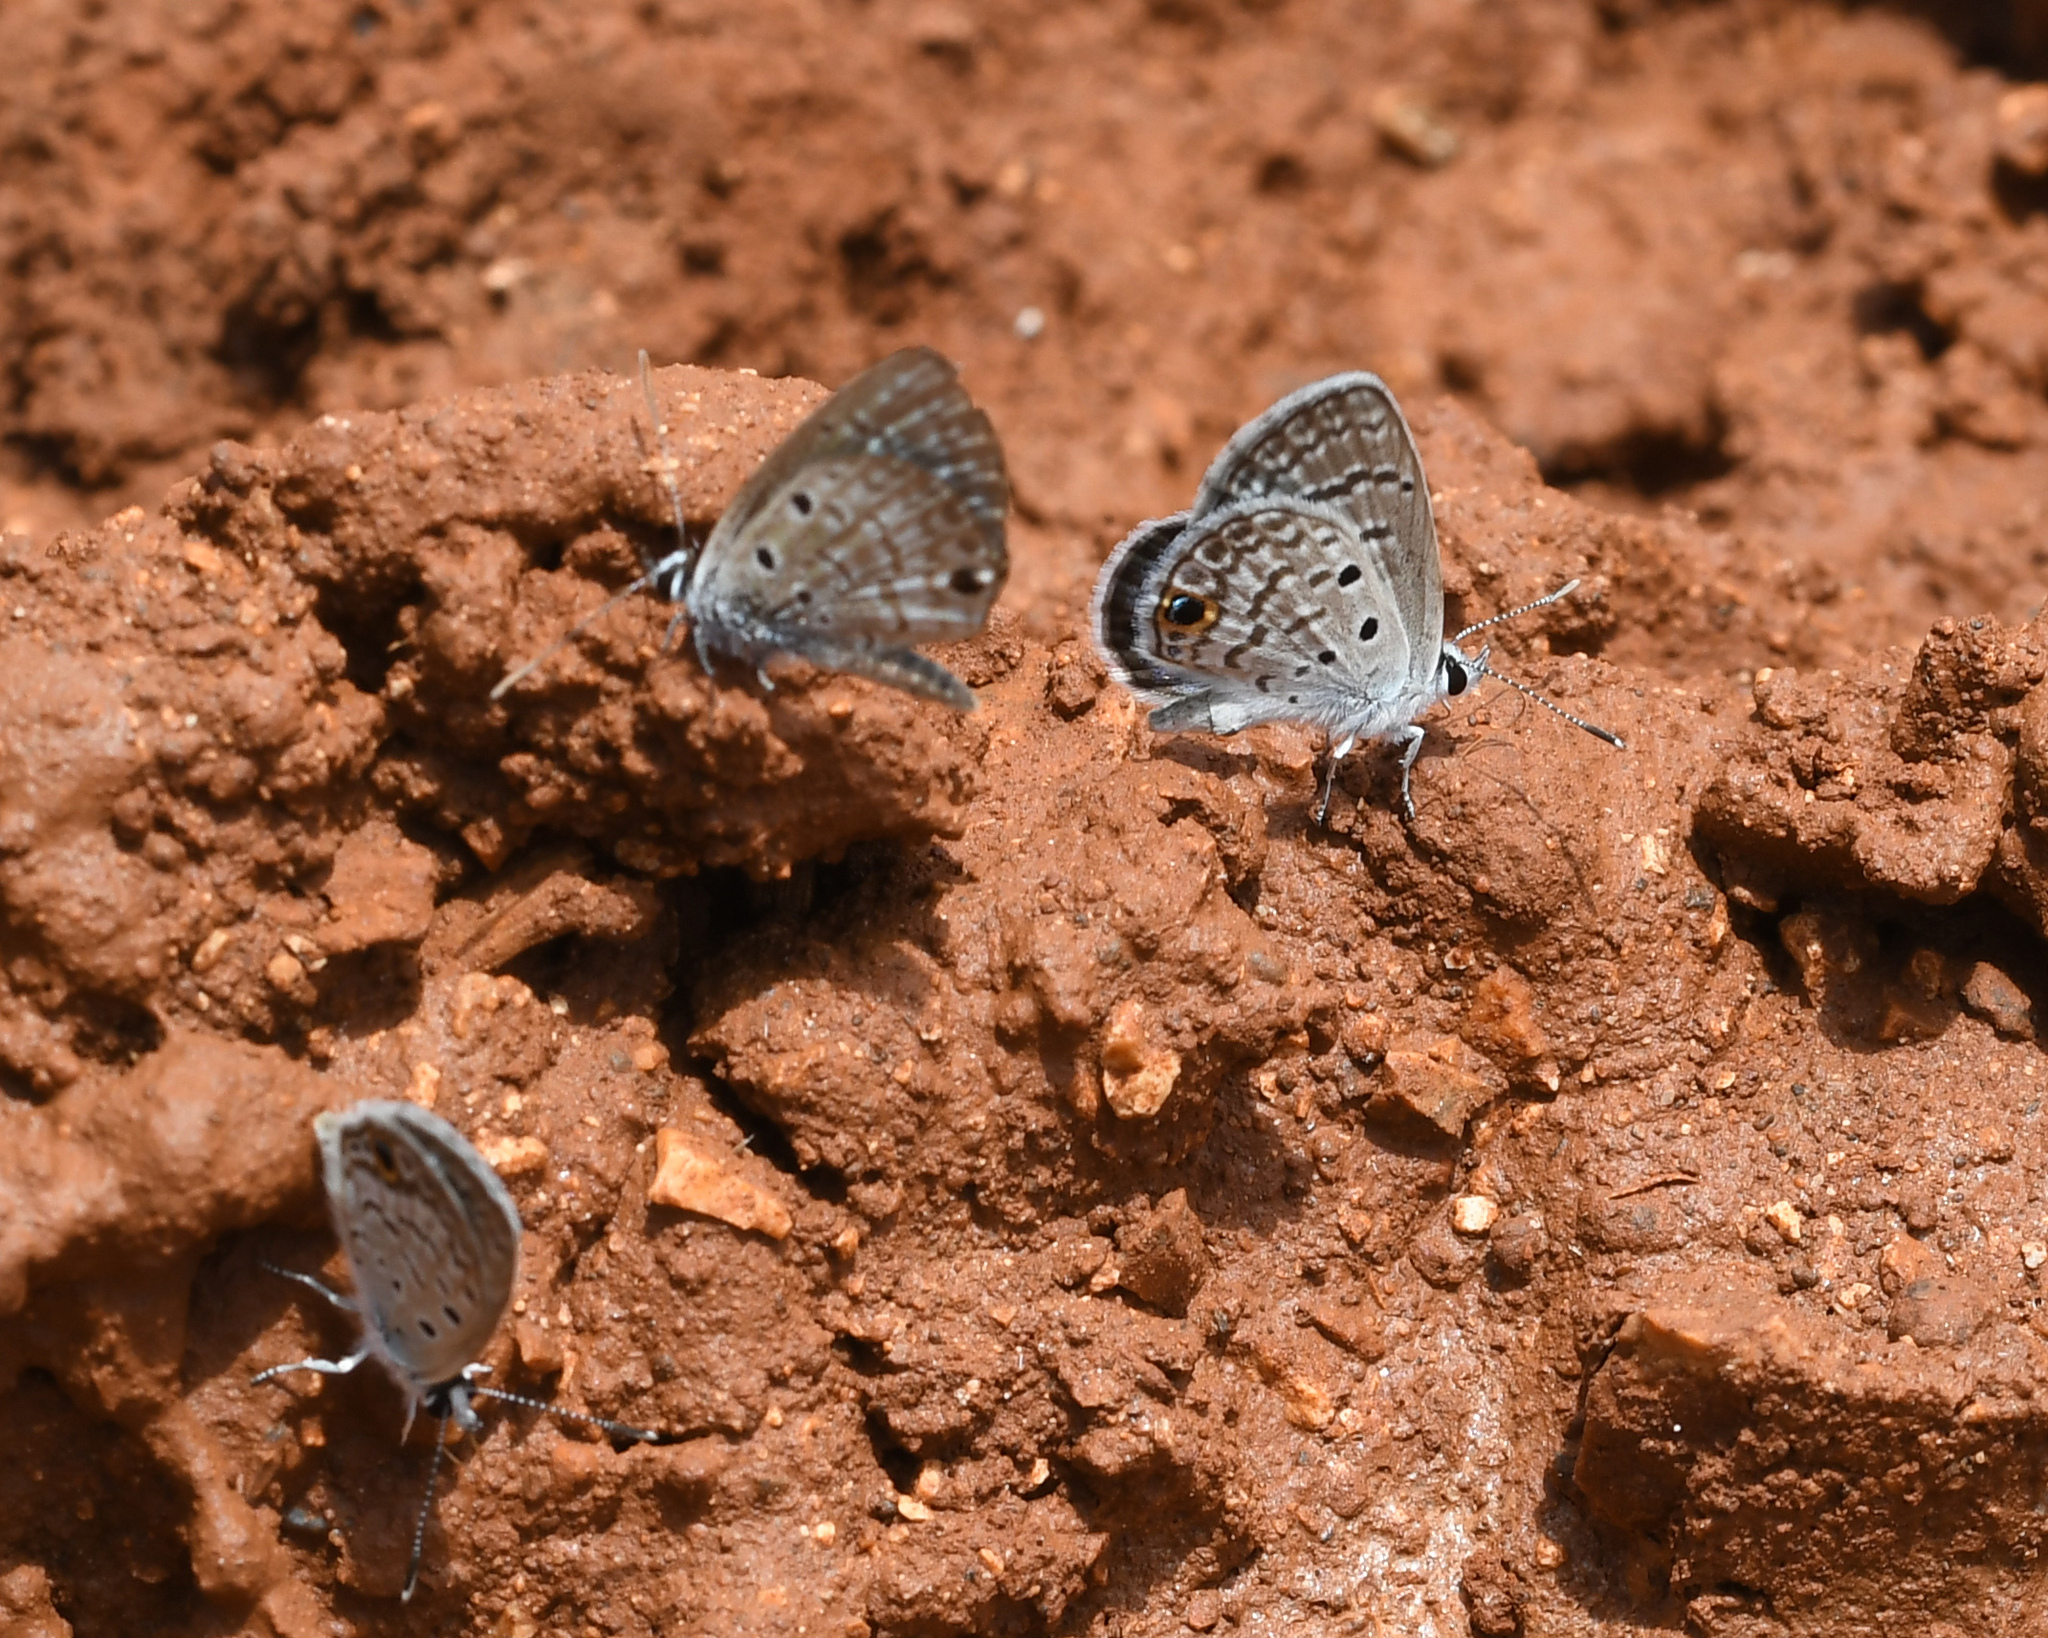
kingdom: Animalia
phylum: Arthropoda
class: Insecta
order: Lepidoptera
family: Lycaenidae
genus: Hemiargus
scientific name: Hemiargus ceraunus
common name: Ceraunus blue
